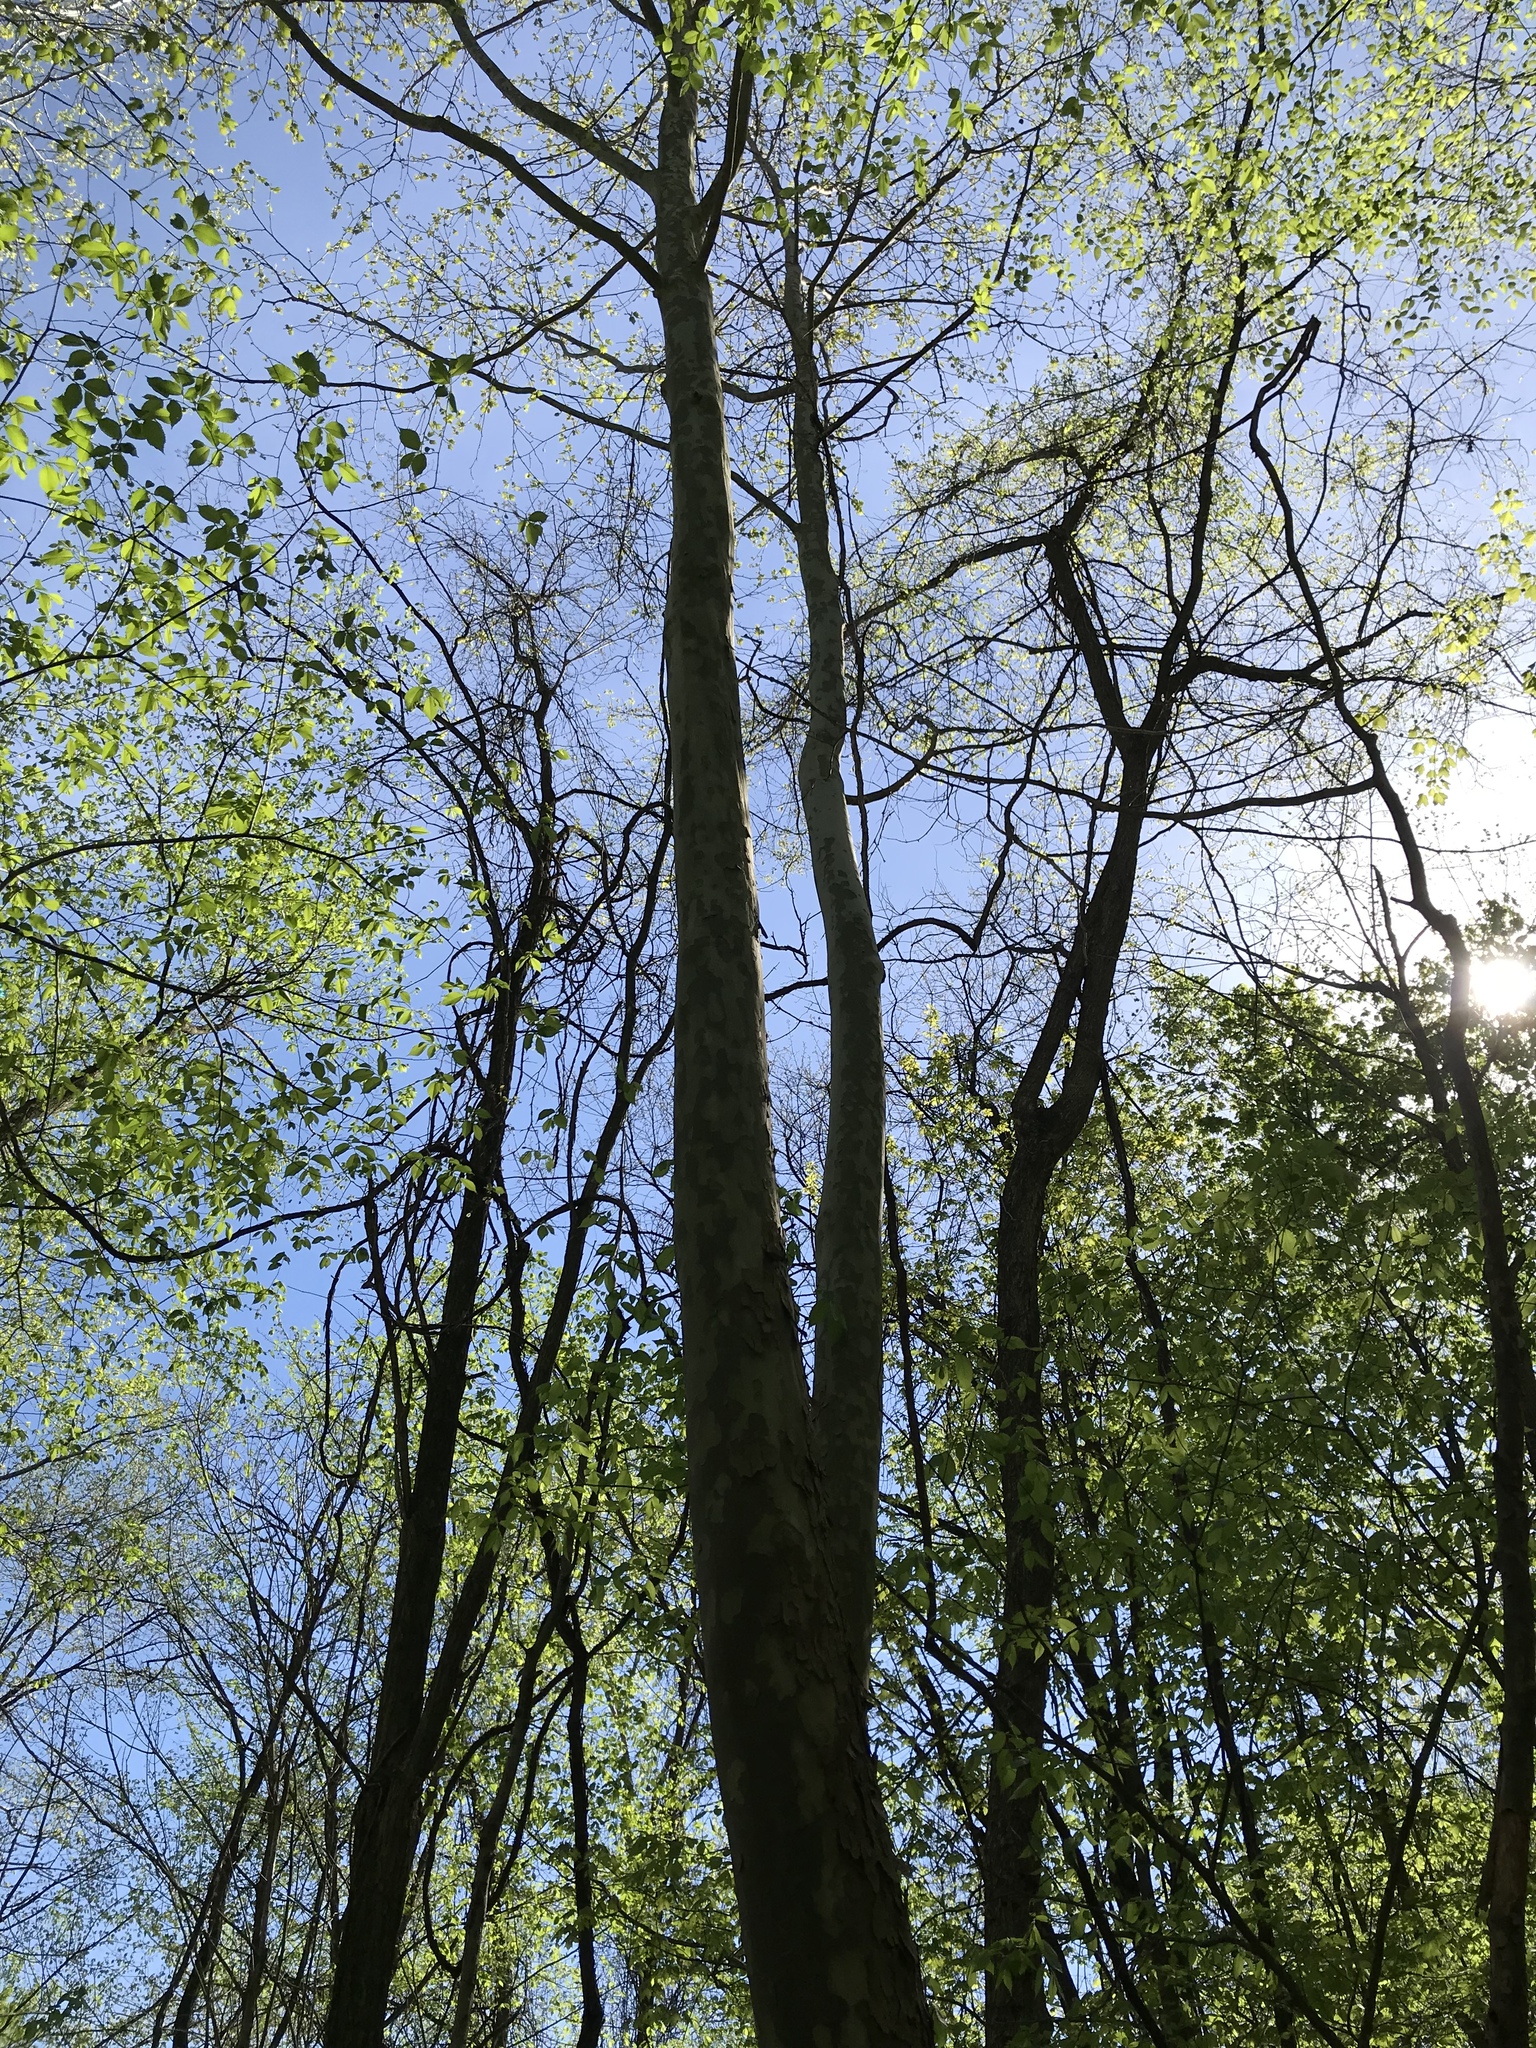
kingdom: Plantae
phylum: Tracheophyta
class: Magnoliopsida
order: Proteales
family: Platanaceae
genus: Platanus
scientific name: Platanus occidentalis
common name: American sycamore
